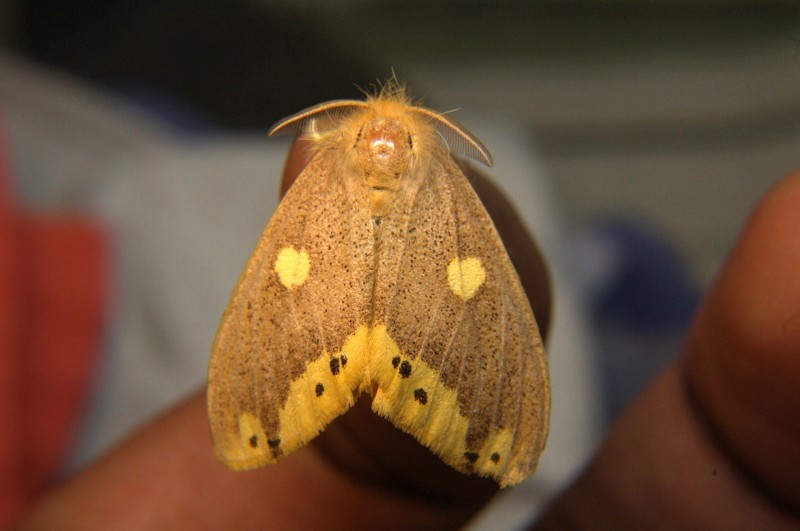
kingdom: Animalia
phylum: Arthropoda
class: Insecta
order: Lepidoptera
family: Erebidae
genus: Euproctis
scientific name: Euproctis quadrangularis
